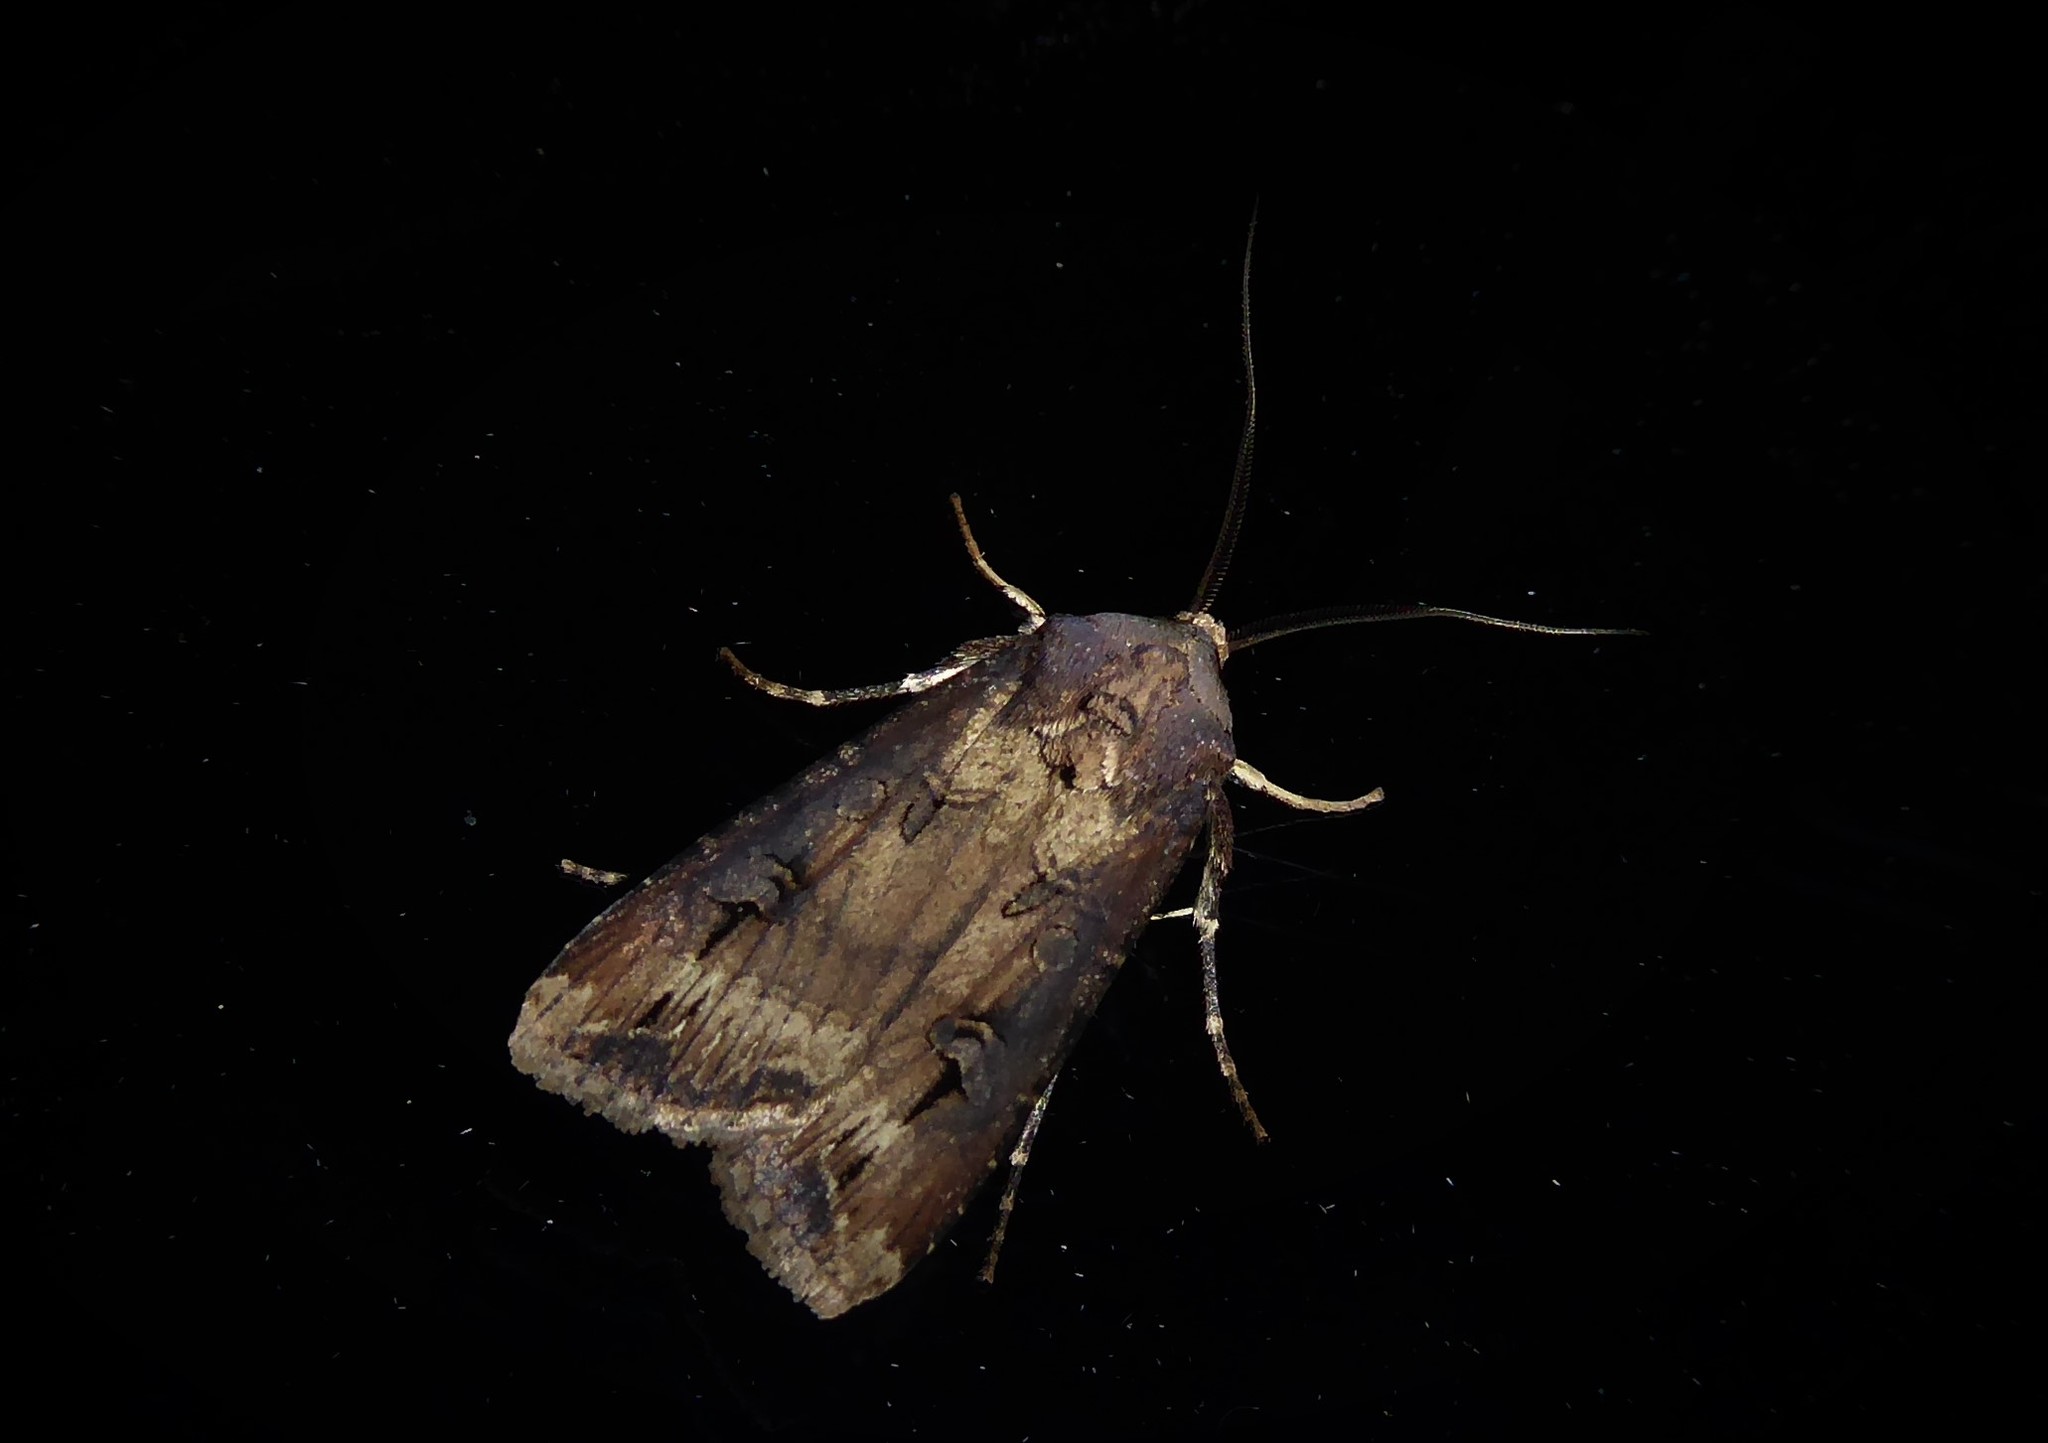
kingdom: Animalia
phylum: Arthropoda
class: Insecta
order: Lepidoptera
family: Noctuidae
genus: Agrotis
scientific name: Agrotis ipsilon
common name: Dark sword-grass
